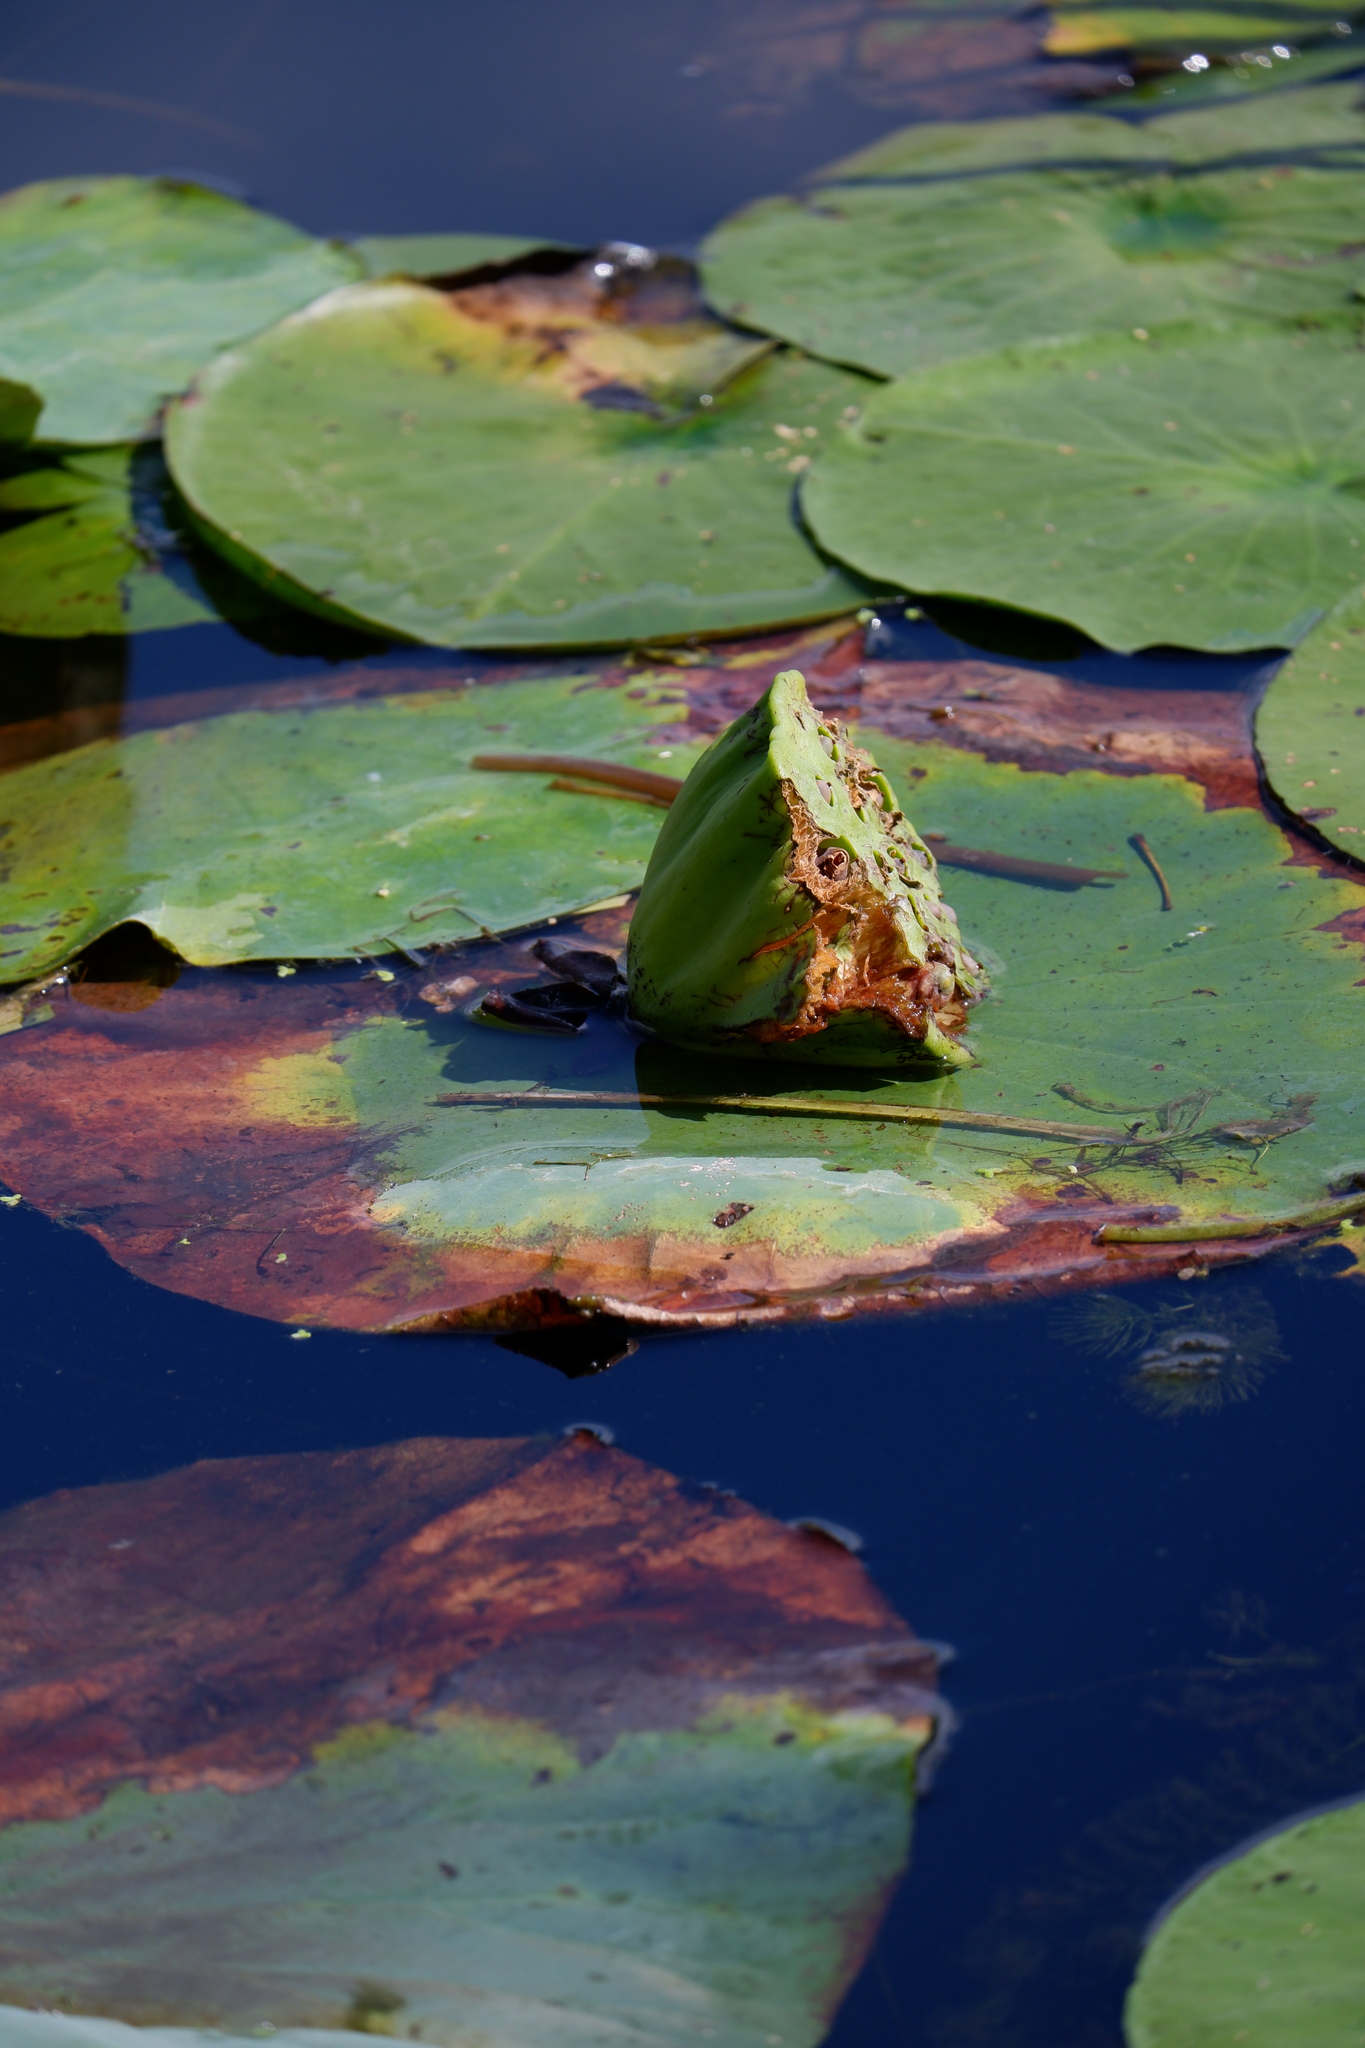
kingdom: Plantae
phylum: Tracheophyta
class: Magnoliopsida
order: Proteales
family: Nelumbonaceae
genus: Nelumbo
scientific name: Nelumbo lutea
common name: American lotus
